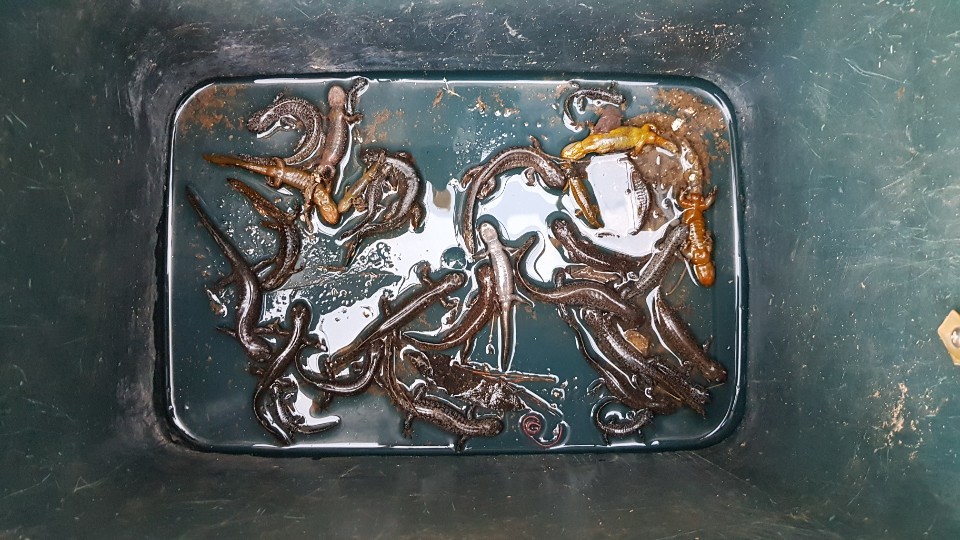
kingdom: Animalia
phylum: Chordata
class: Amphibia
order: Caudata
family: Hynobiidae
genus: Hynobius
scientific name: Hynobius leechii
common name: Gensan salamander
